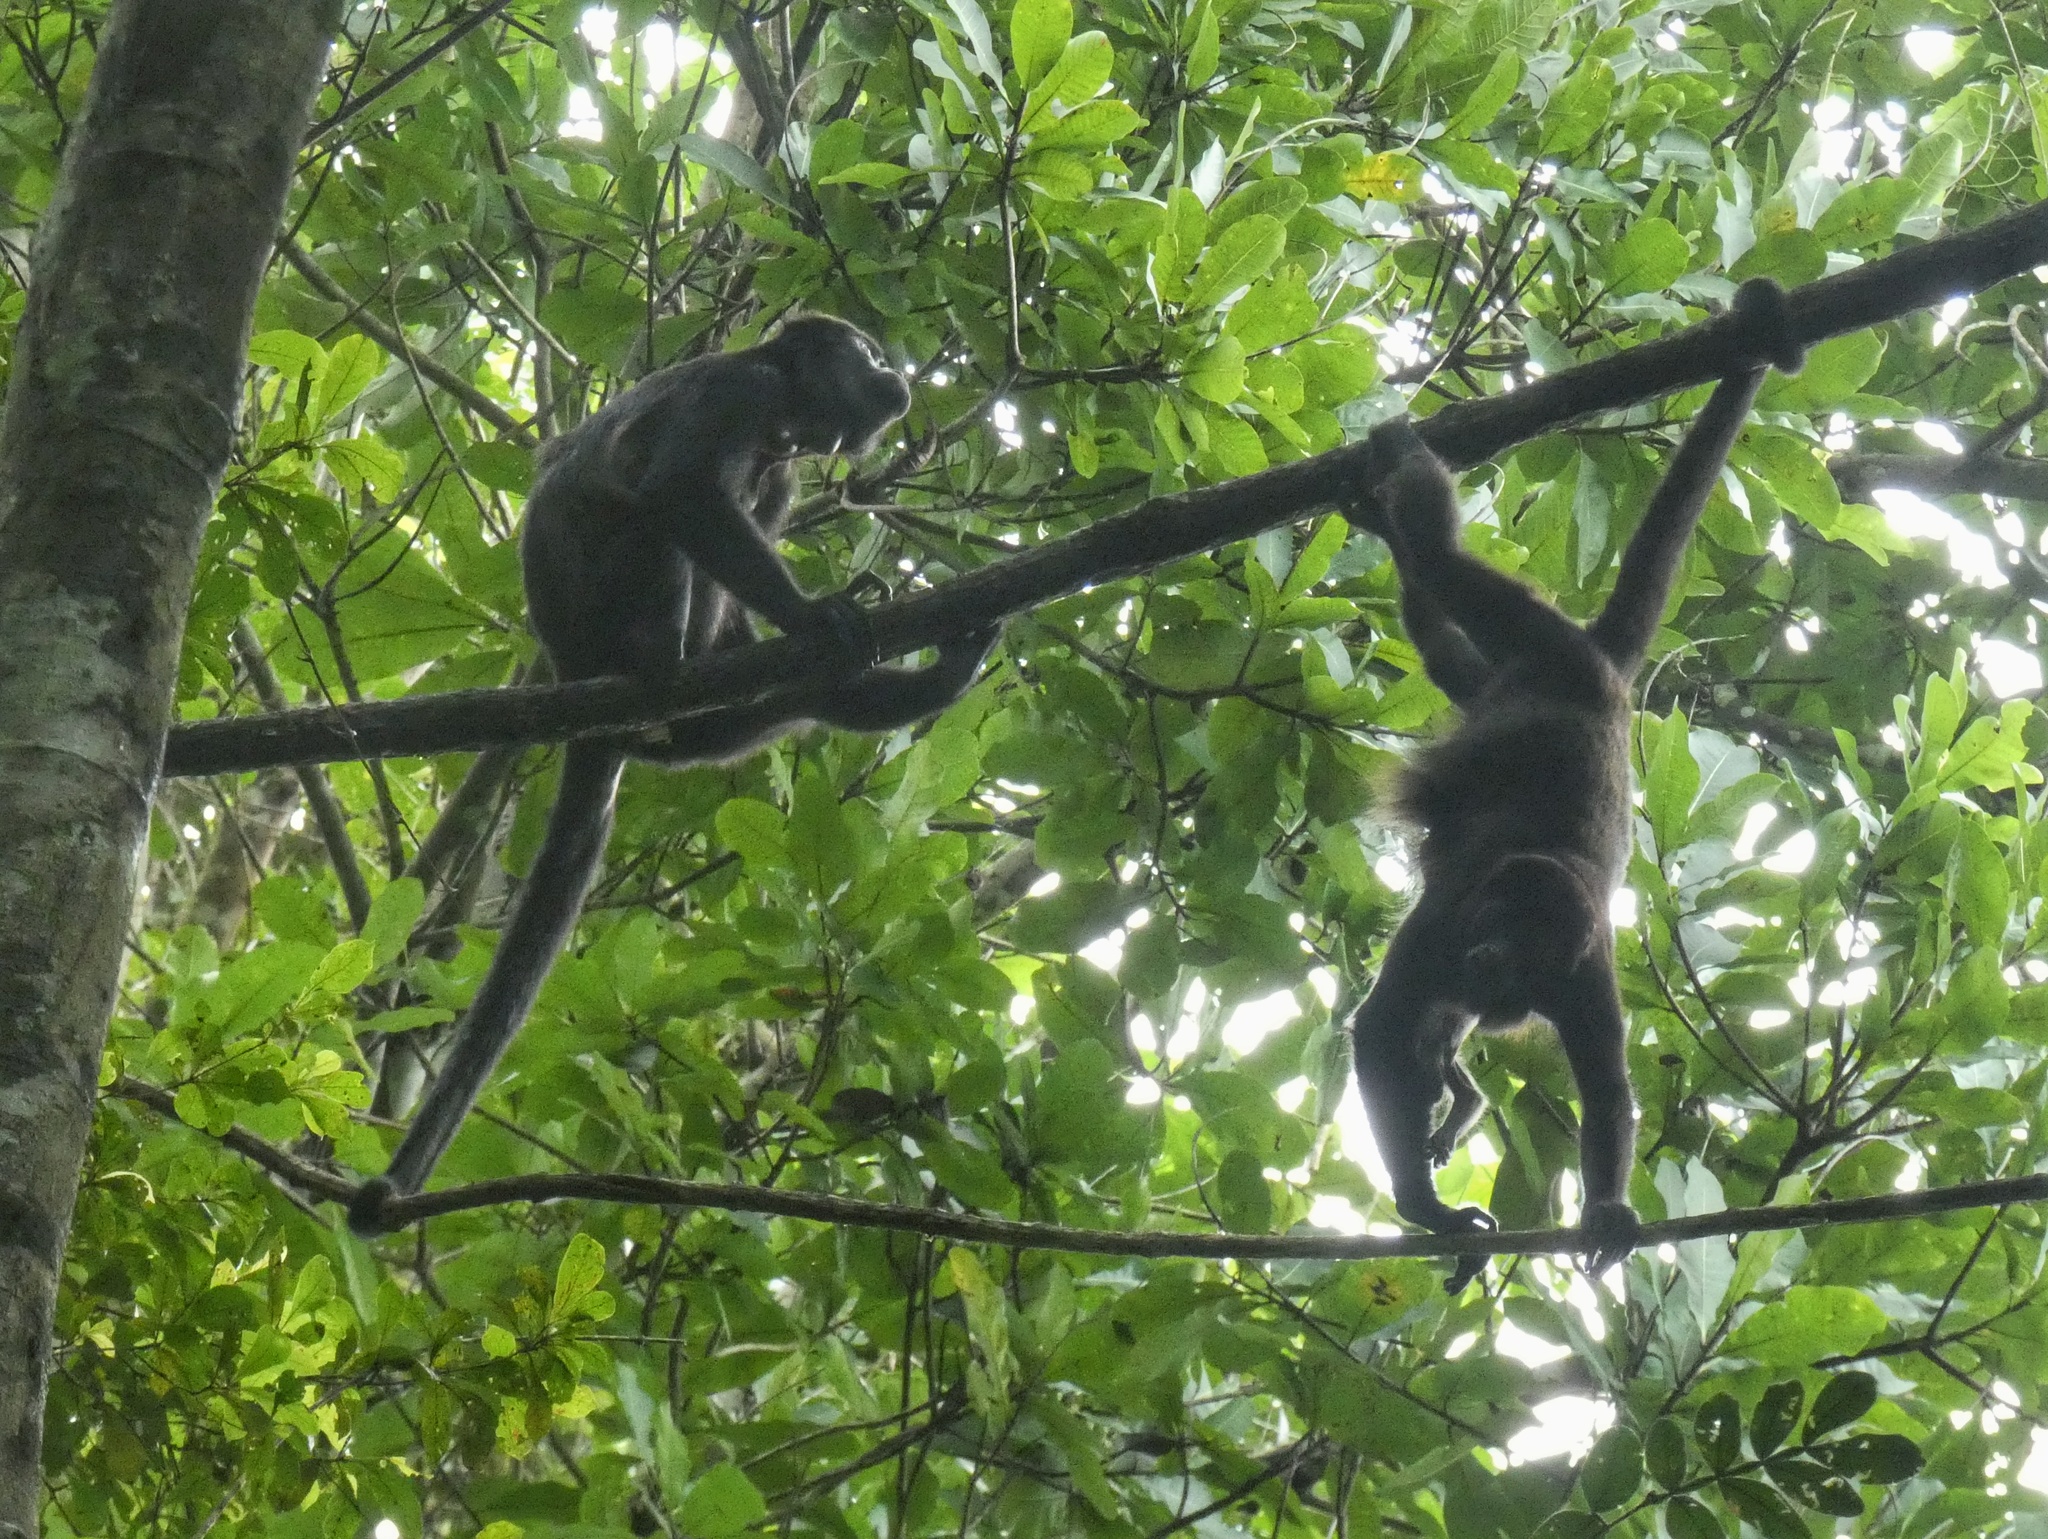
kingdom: Animalia
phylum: Chordata
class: Mammalia
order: Primates
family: Atelidae
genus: Alouatta
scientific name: Alouatta palliata
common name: Mantled howler
